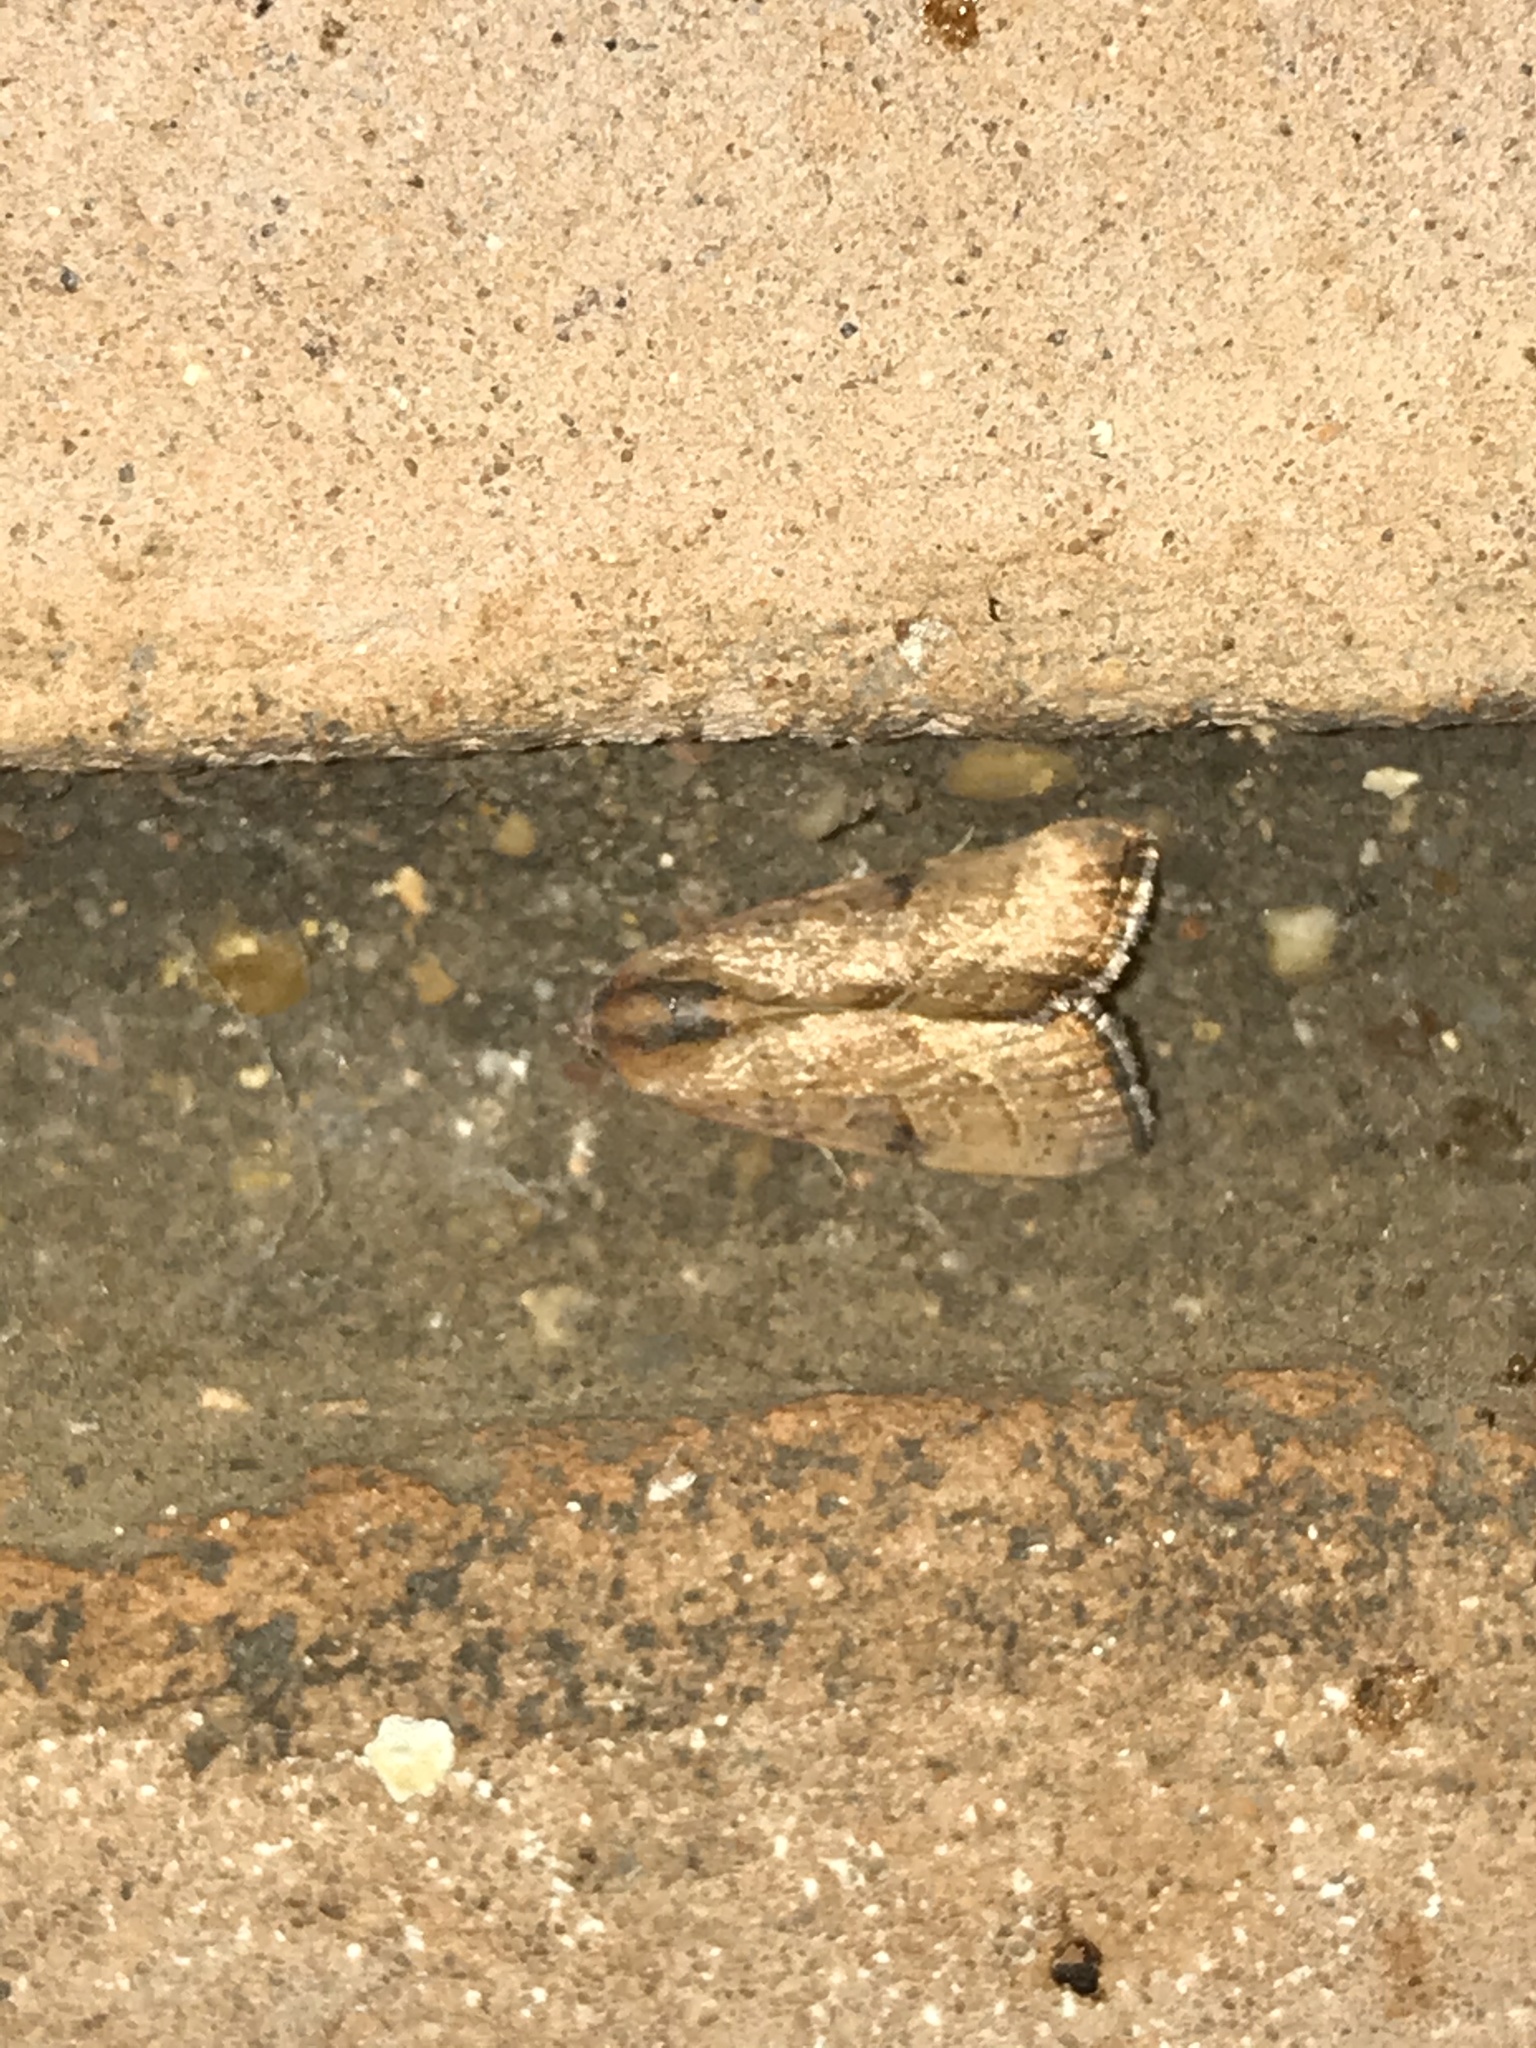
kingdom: Animalia
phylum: Arthropoda
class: Insecta
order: Lepidoptera
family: Noctuidae
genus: Galgula
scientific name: Galgula partita
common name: Wedgeling
